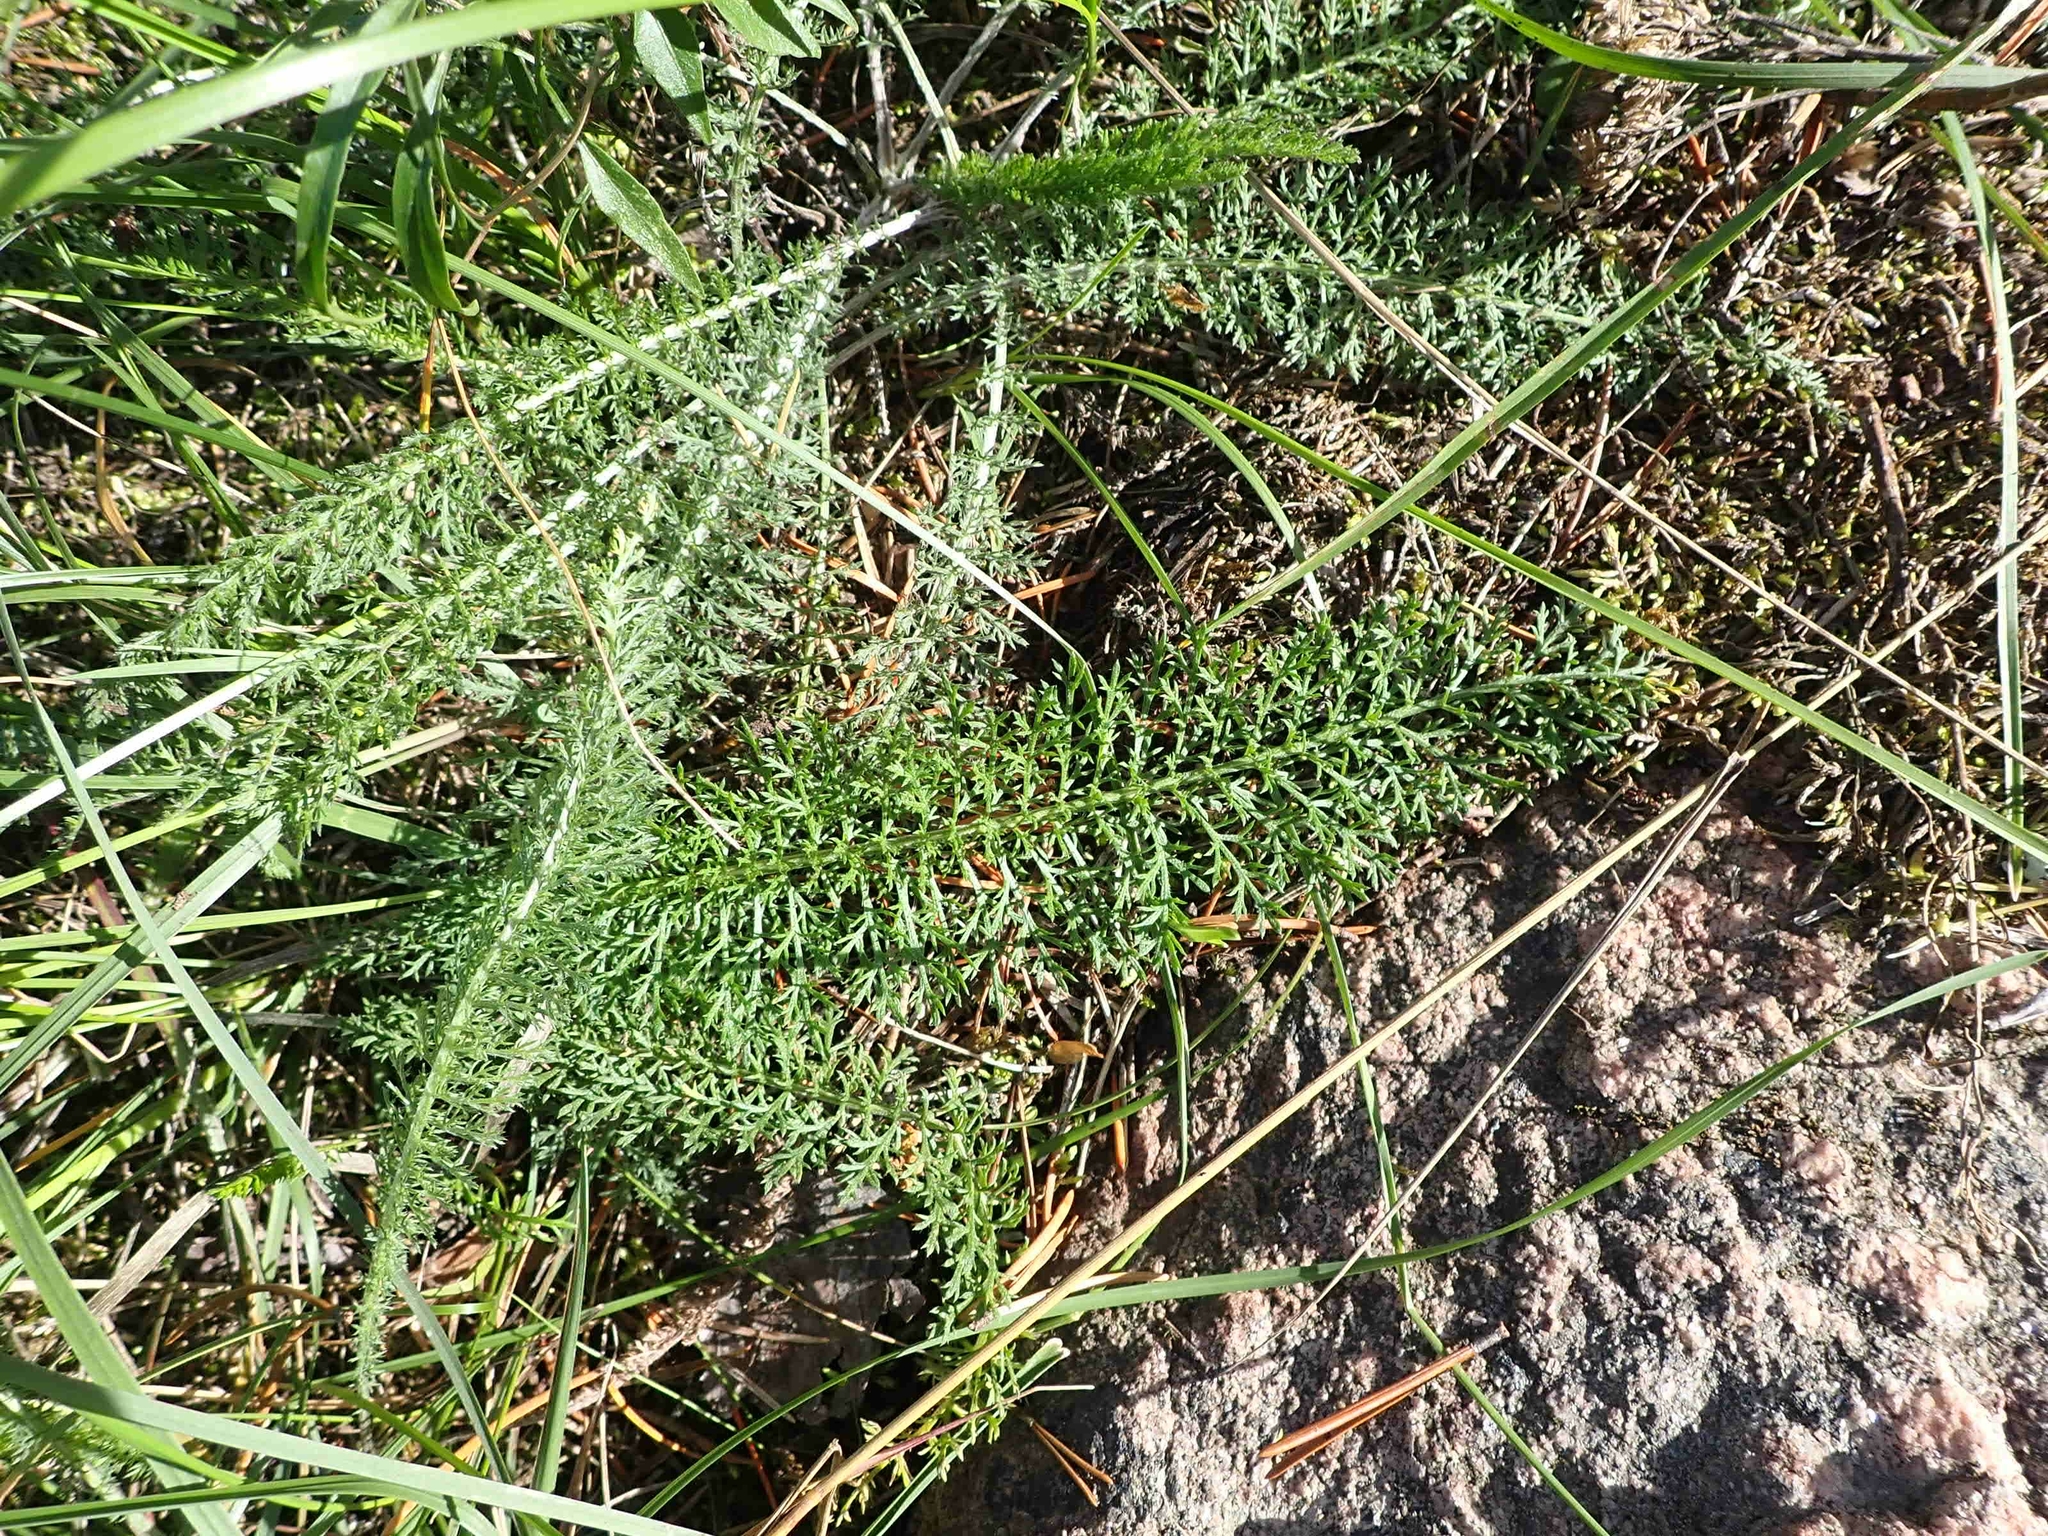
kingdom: Plantae
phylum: Tracheophyta
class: Magnoliopsida
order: Asterales
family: Asteraceae
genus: Achillea
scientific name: Achillea millefolium
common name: Yarrow
